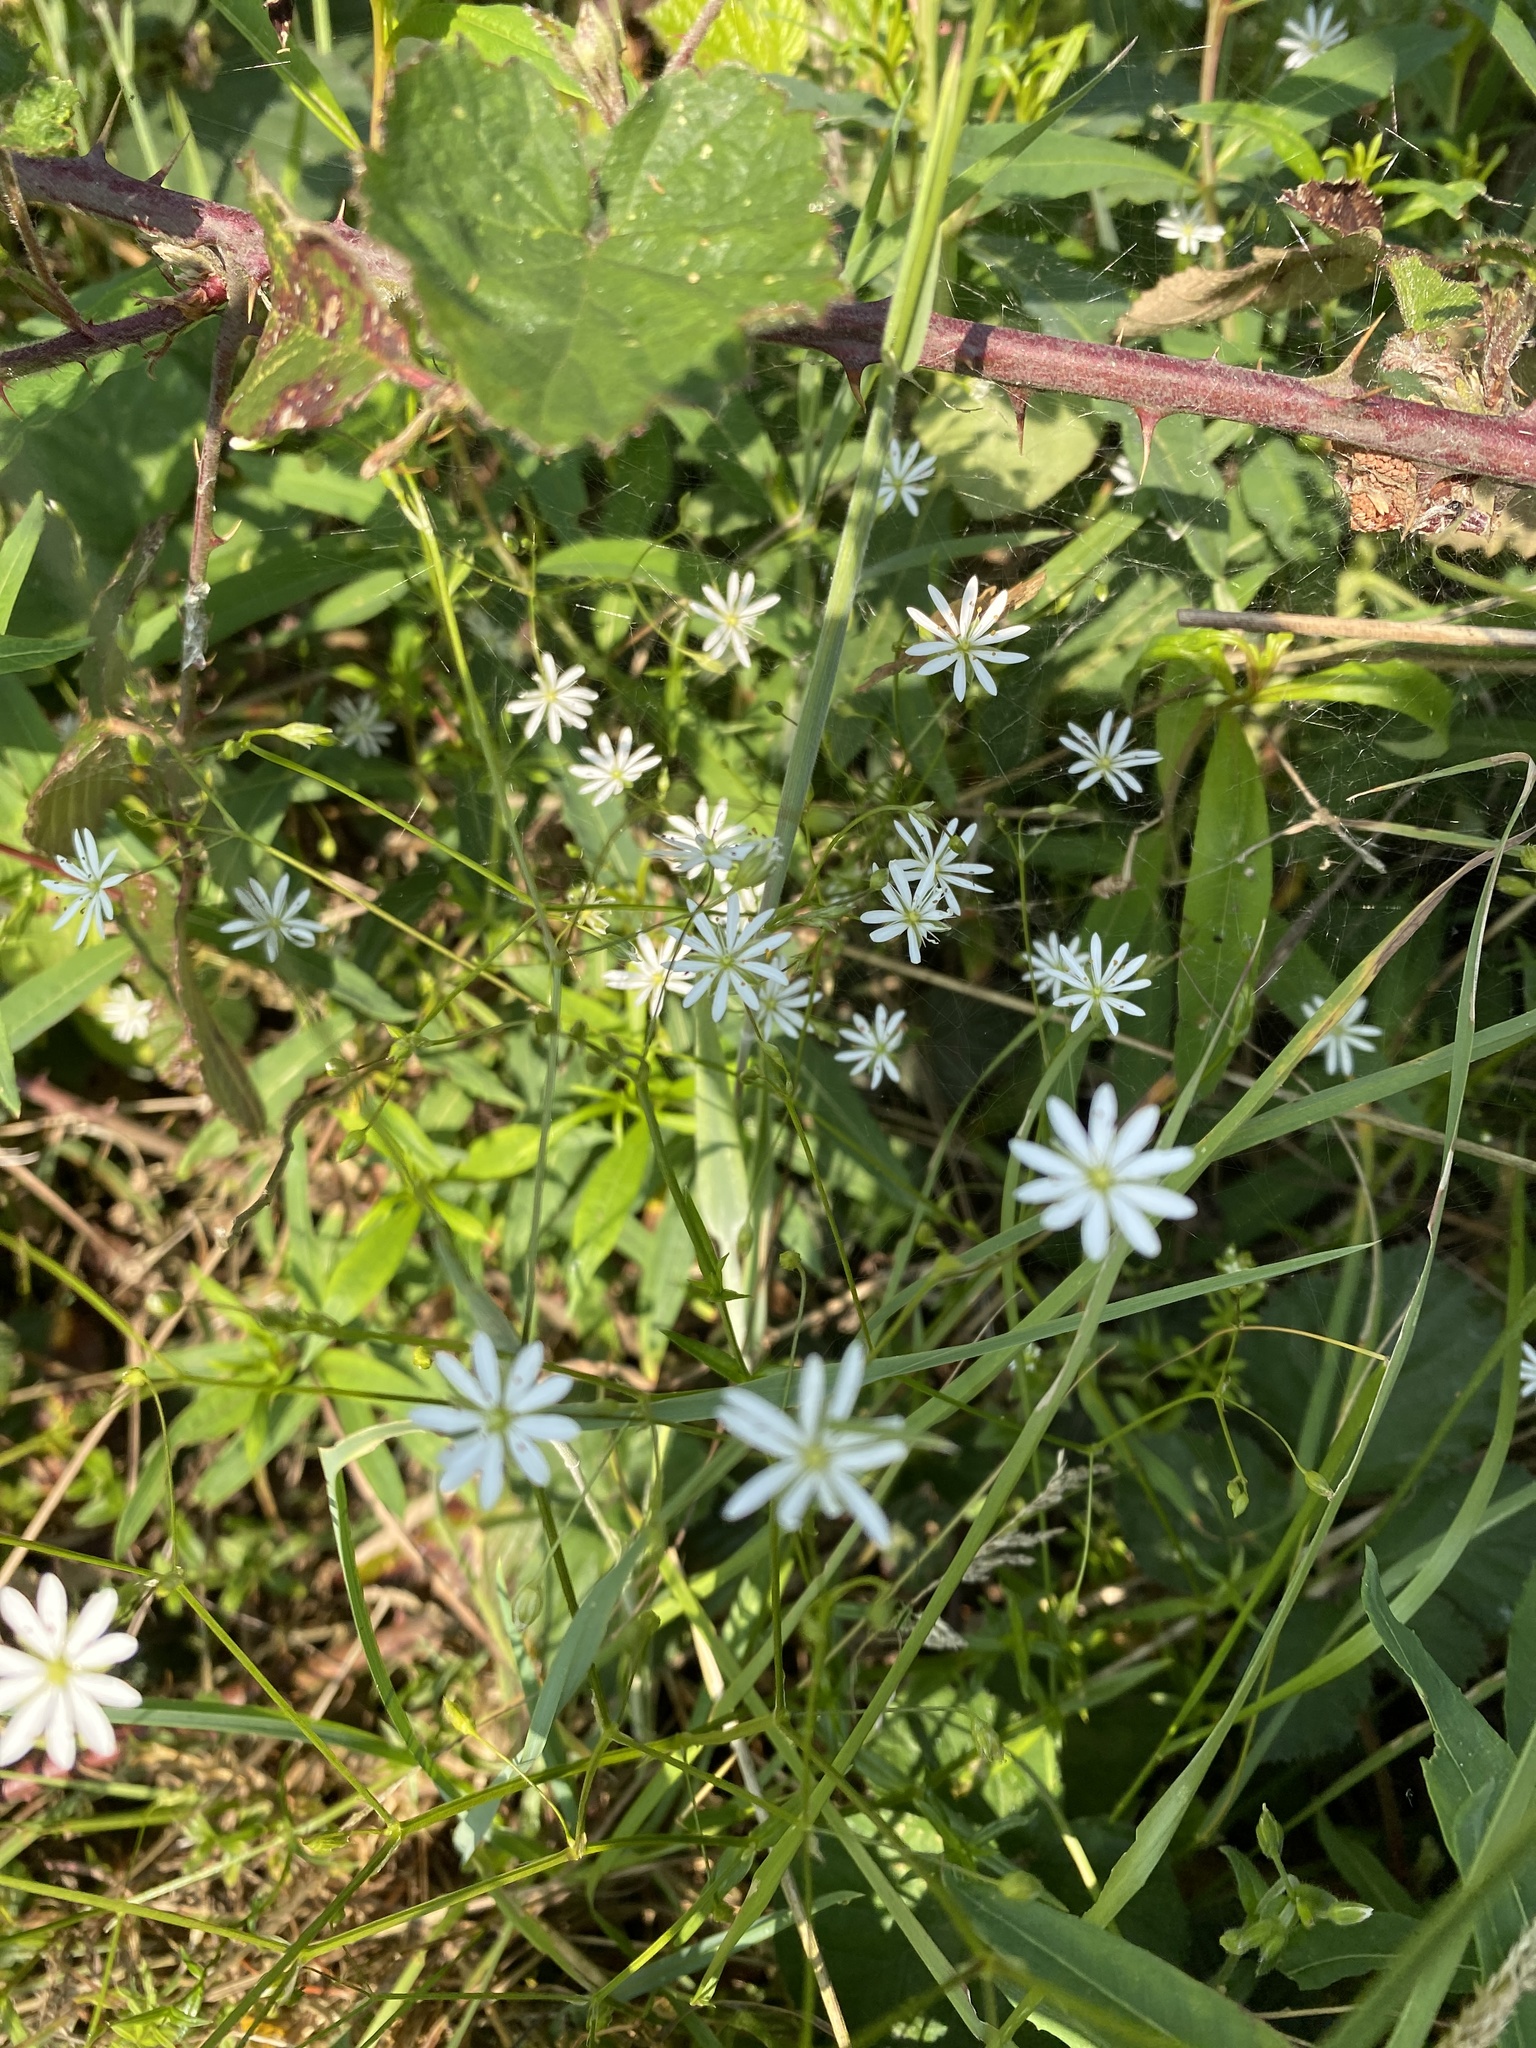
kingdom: Plantae
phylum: Tracheophyta
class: Magnoliopsida
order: Caryophyllales
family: Caryophyllaceae
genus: Stellaria
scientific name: Stellaria graminea
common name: Grass-like starwort
